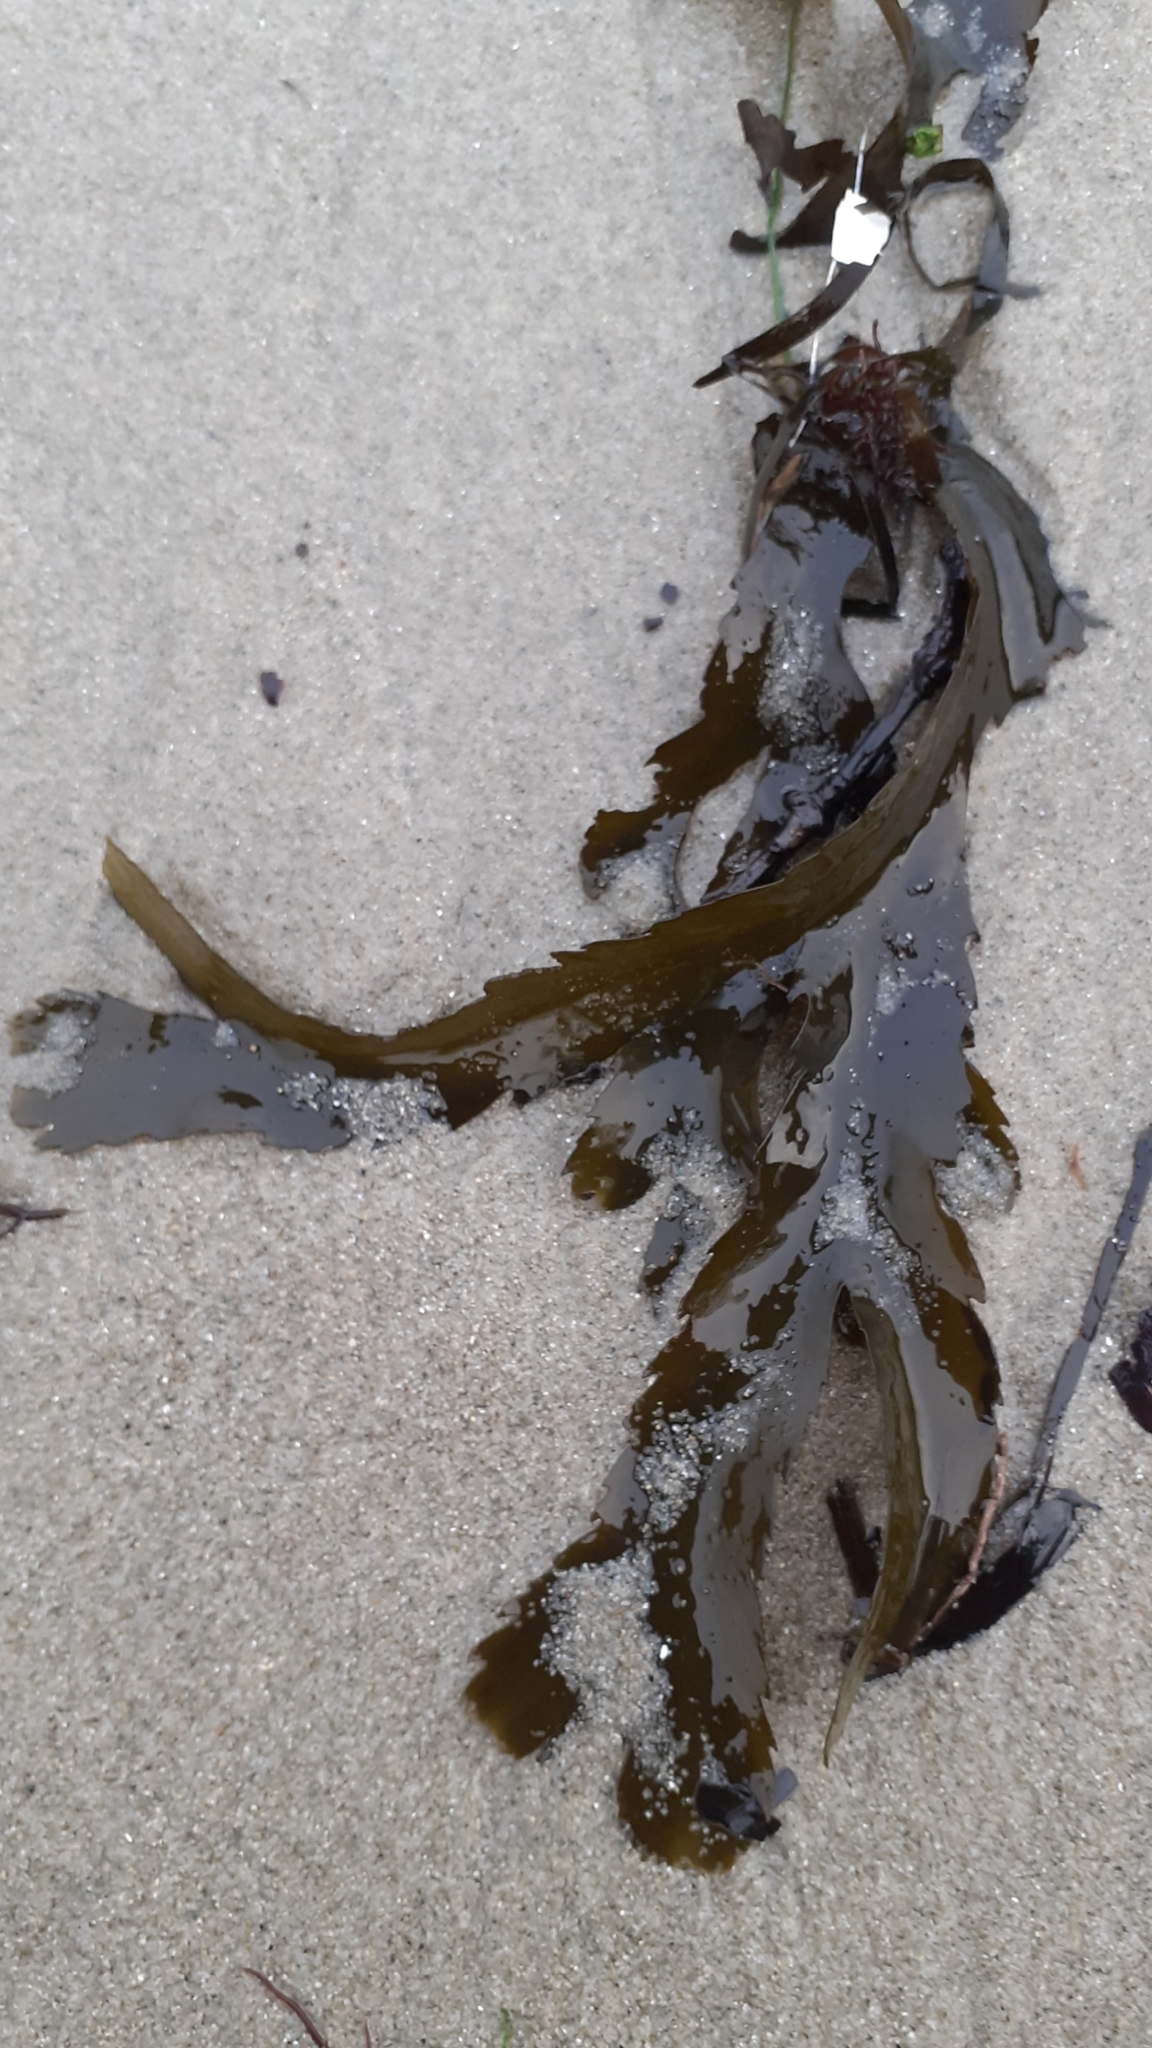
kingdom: Chromista
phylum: Ochrophyta
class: Phaeophyceae
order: Fucales
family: Fucaceae
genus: Fucus
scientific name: Fucus serratus
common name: Toothed wrack
